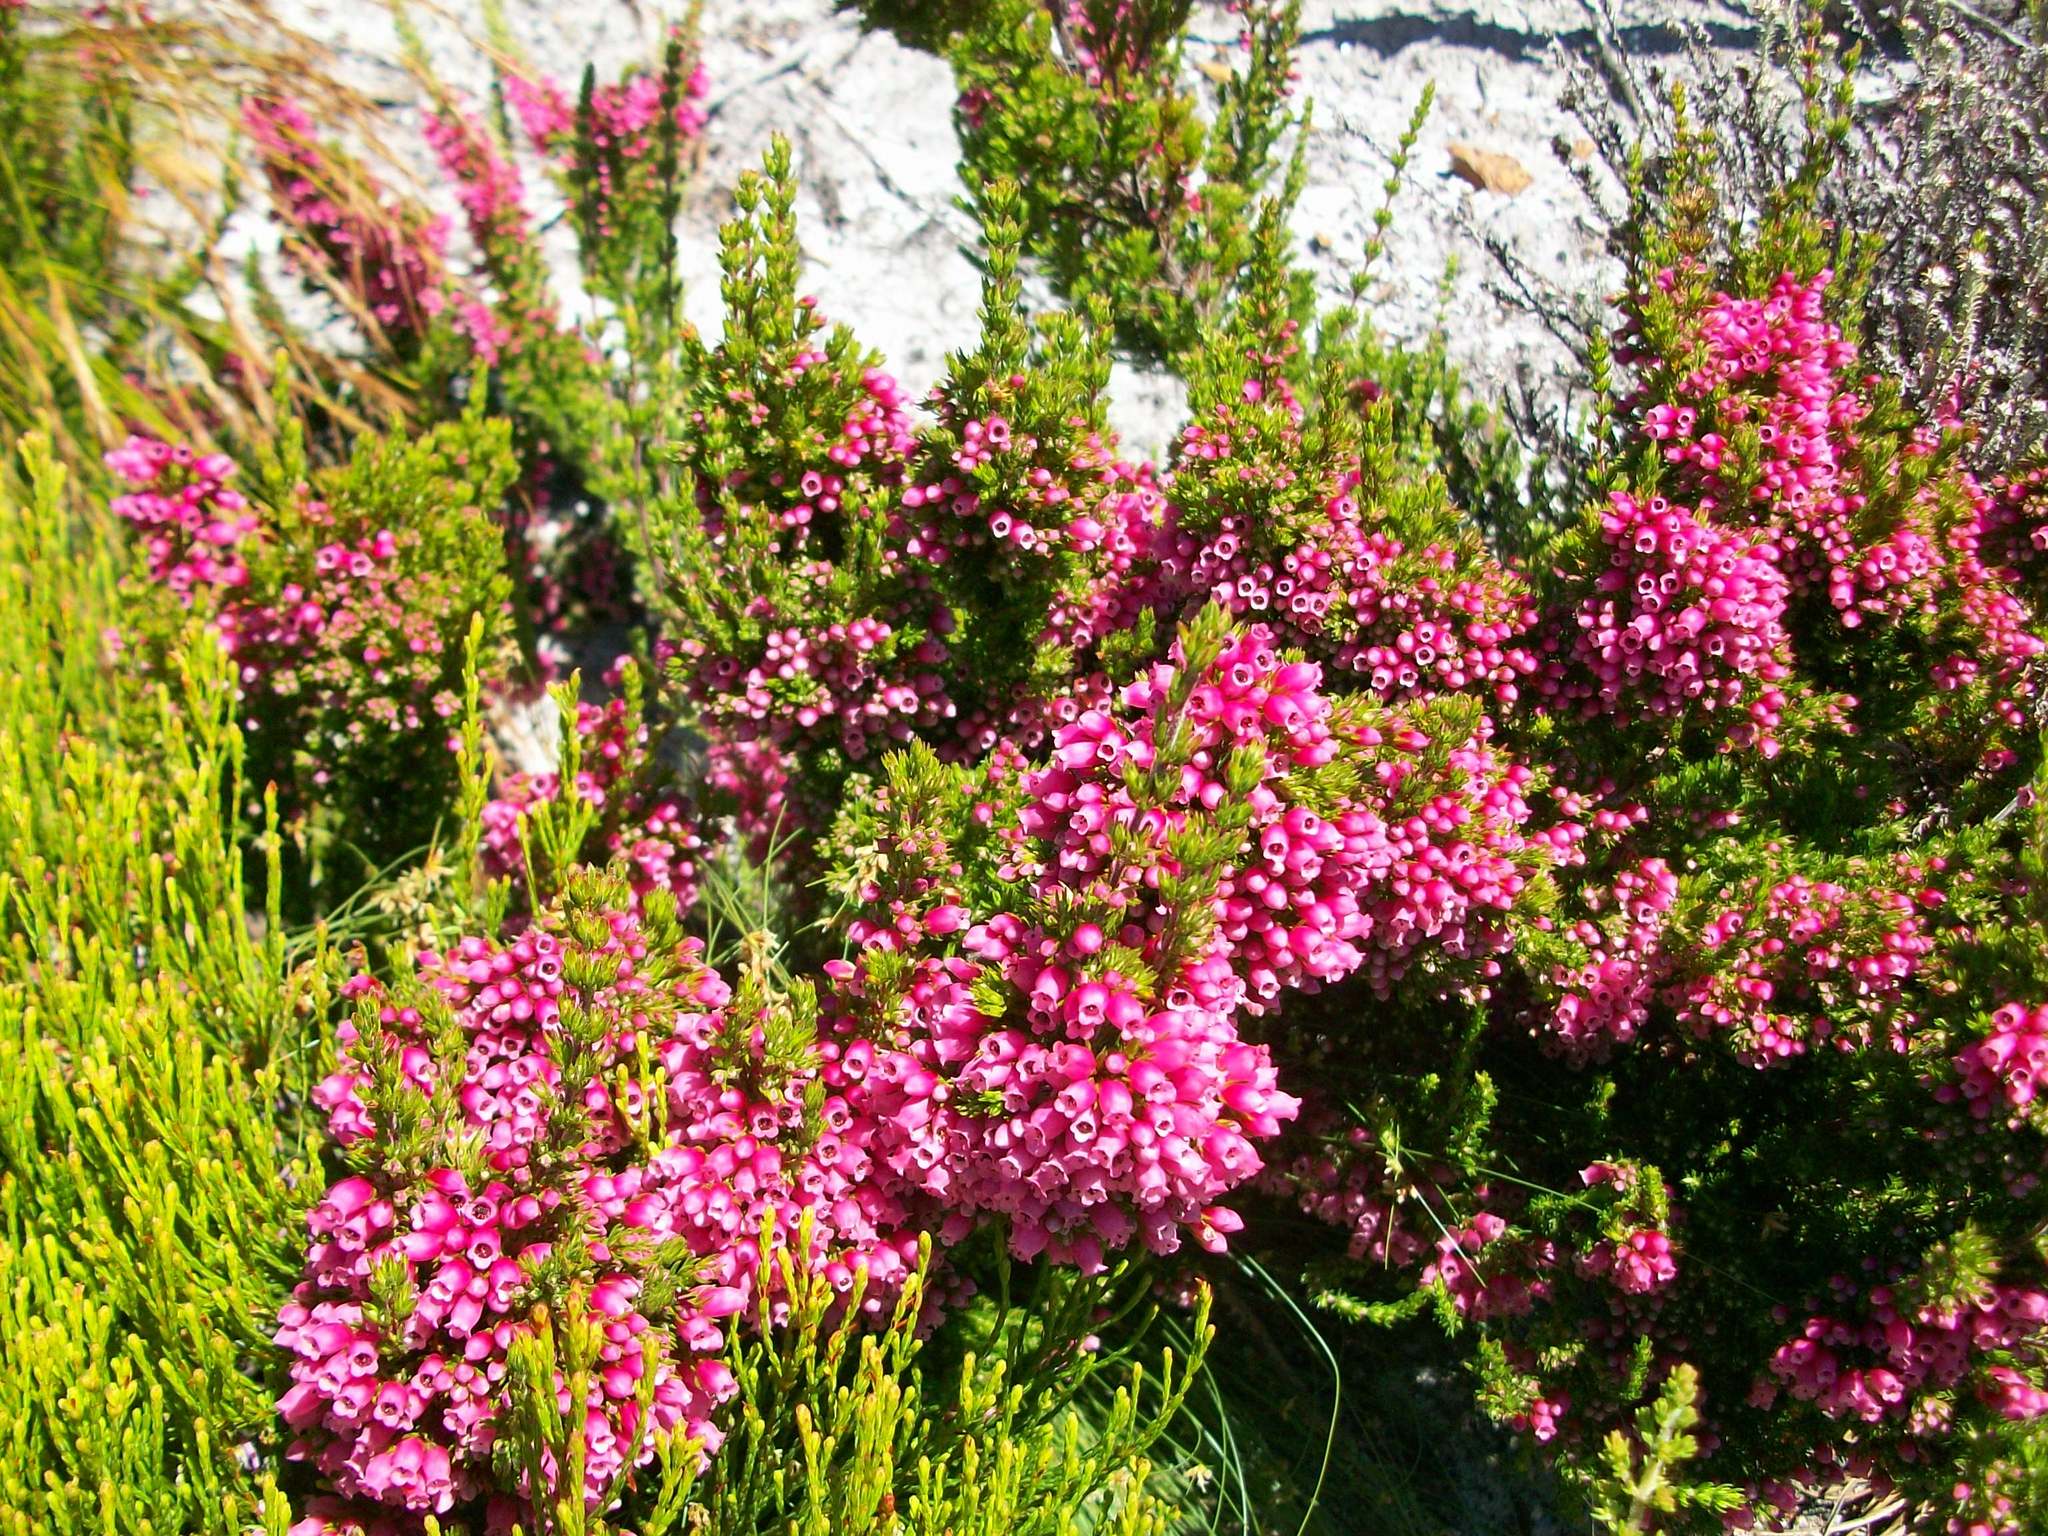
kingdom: Plantae
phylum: Tracheophyta
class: Magnoliopsida
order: Ericales
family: Ericaceae
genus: Erica
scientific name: Erica sitiens
